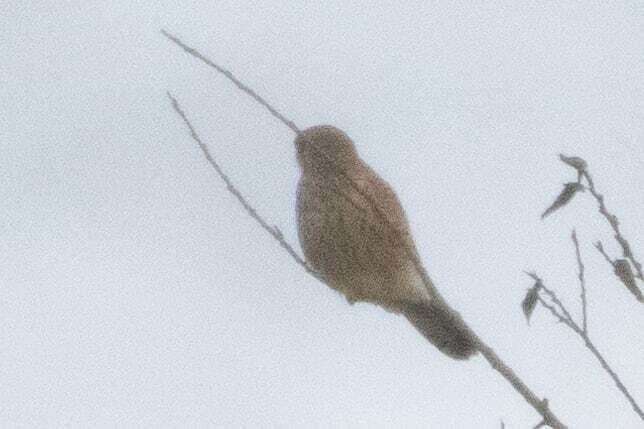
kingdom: Animalia
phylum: Chordata
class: Aves
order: Falconiformes
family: Falconidae
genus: Falco
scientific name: Falco tinnunculus
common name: Common kestrel
